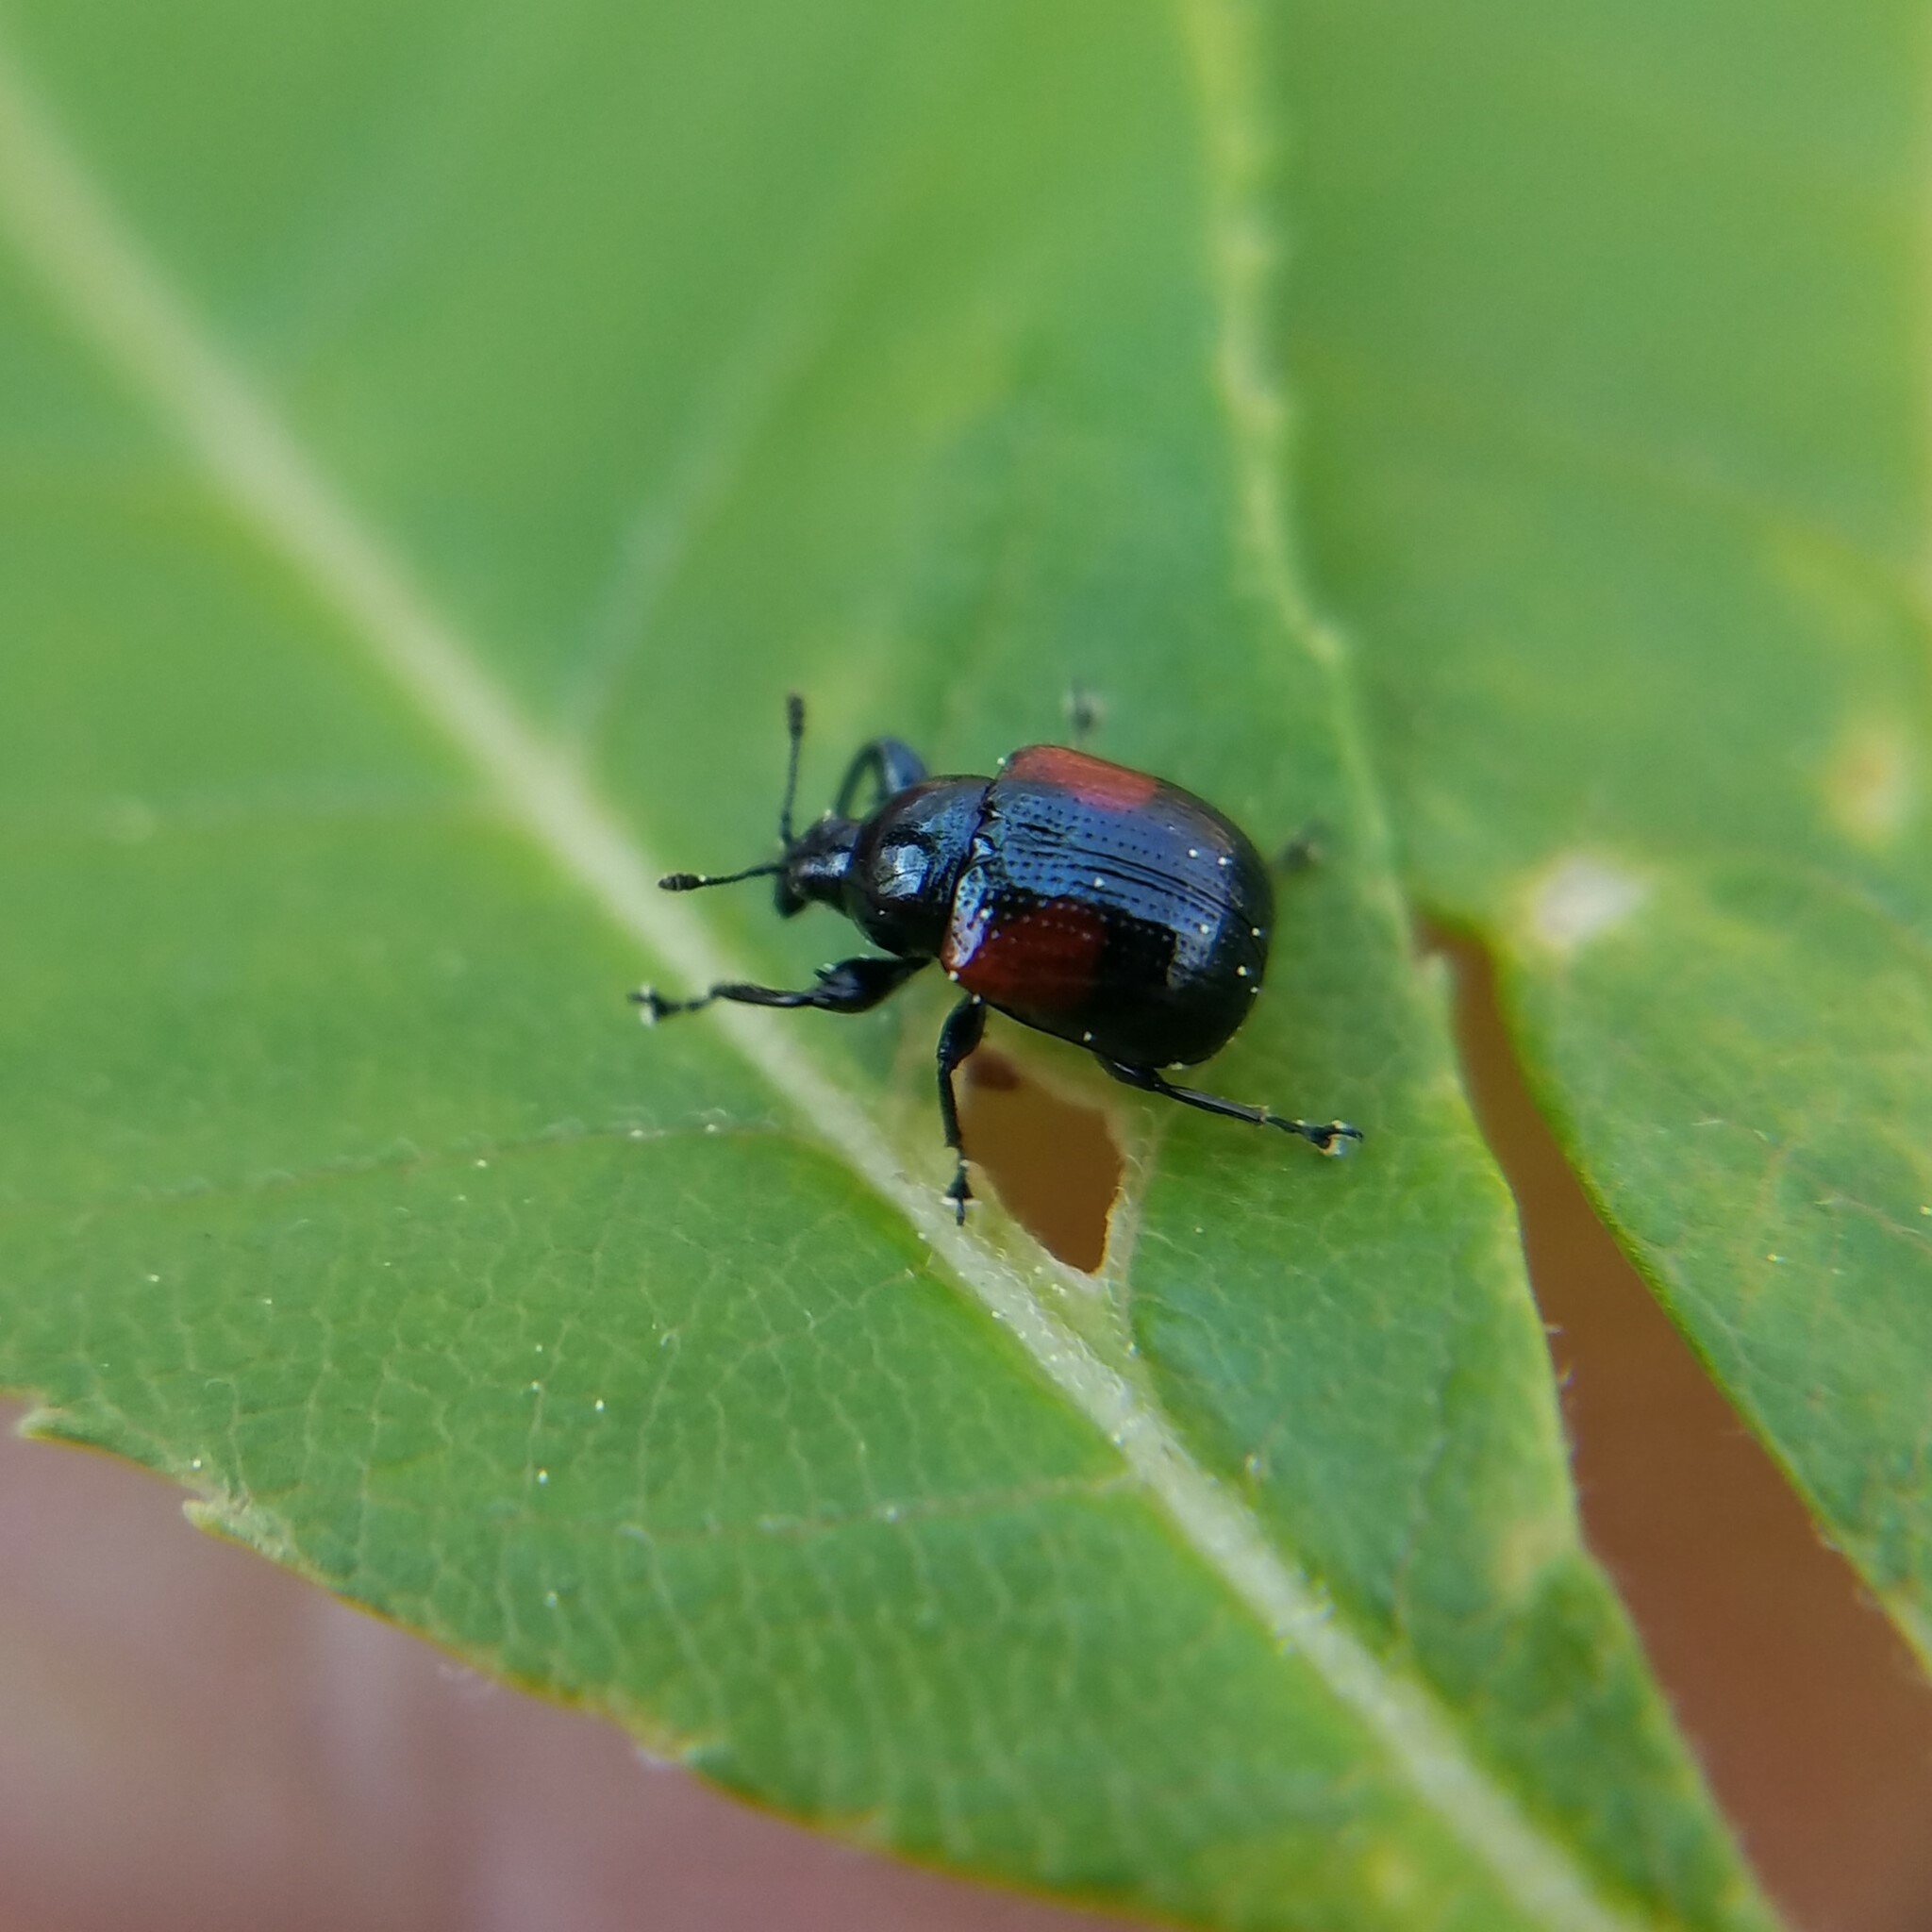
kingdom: Animalia
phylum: Arthropoda
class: Insecta
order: Coleoptera
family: Attelabidae
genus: Attelabus
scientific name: Attelabus bipustulatus
